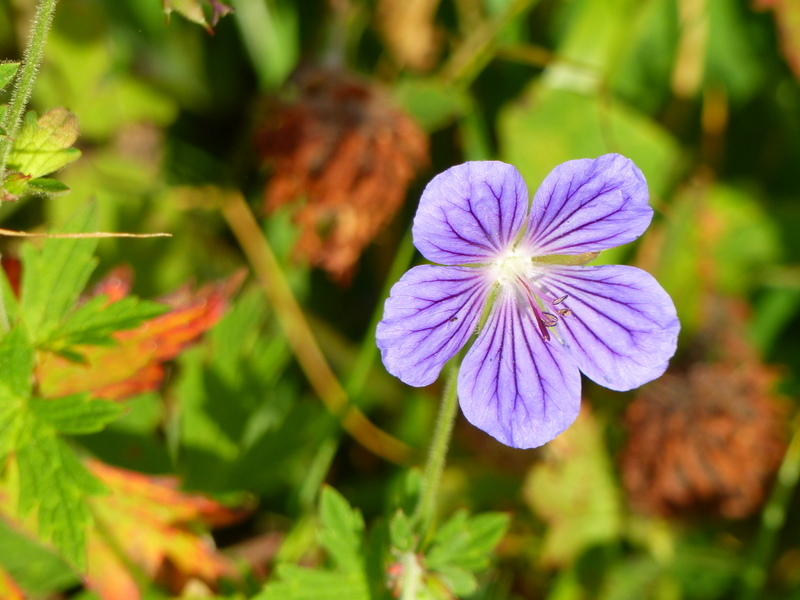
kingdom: Plantae
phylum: Tracheophyta
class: Magnoliopsida
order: Geraniales
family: Geraniaceae
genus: Geranium
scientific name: Geranium pratense
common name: Meadow crane's-bill
